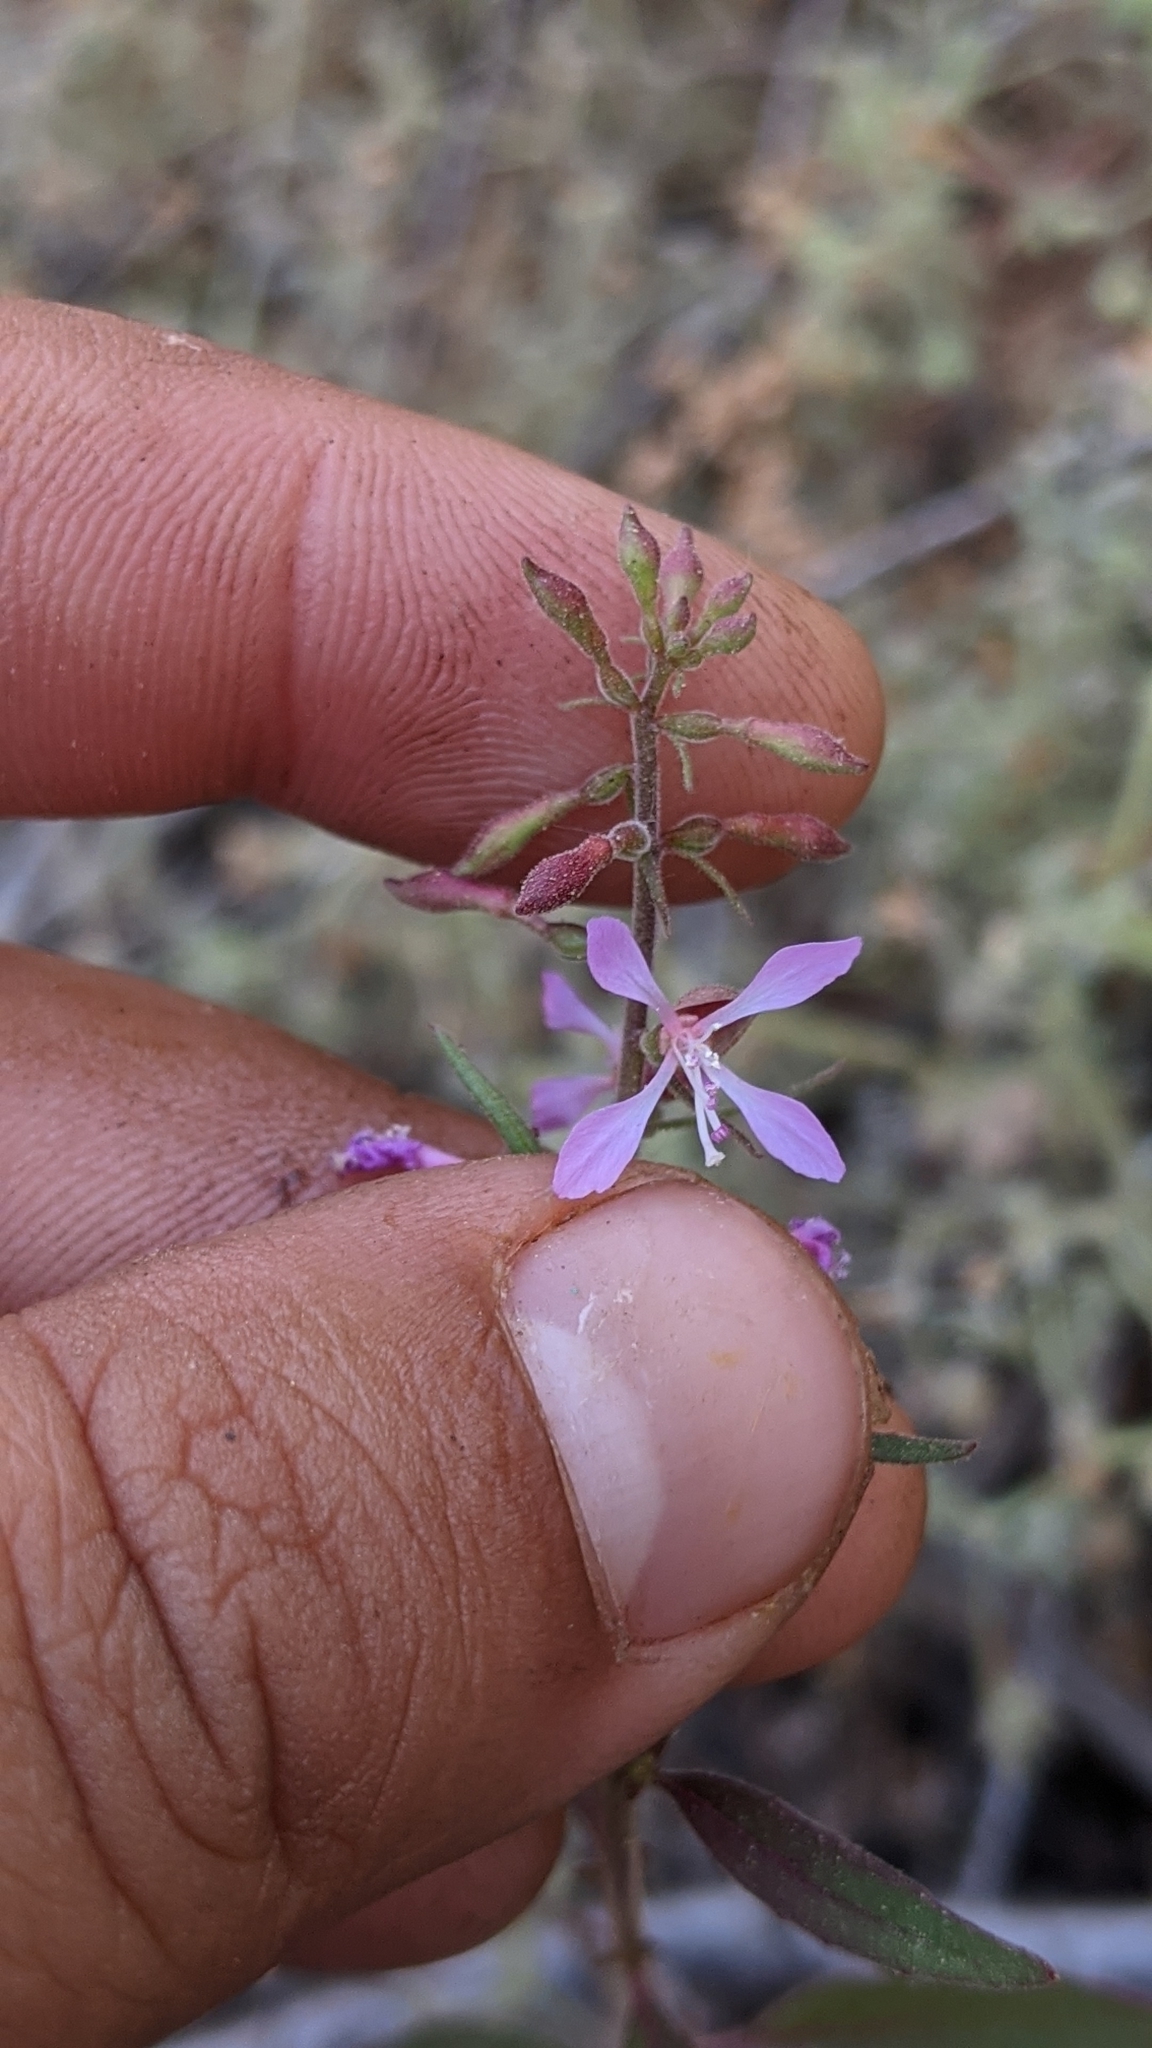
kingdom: Plantae
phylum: Tracheophyta
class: Magnoliopsida
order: Myrtales
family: Onagraceae
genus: Clarkia
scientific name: Clarkia heterandra
